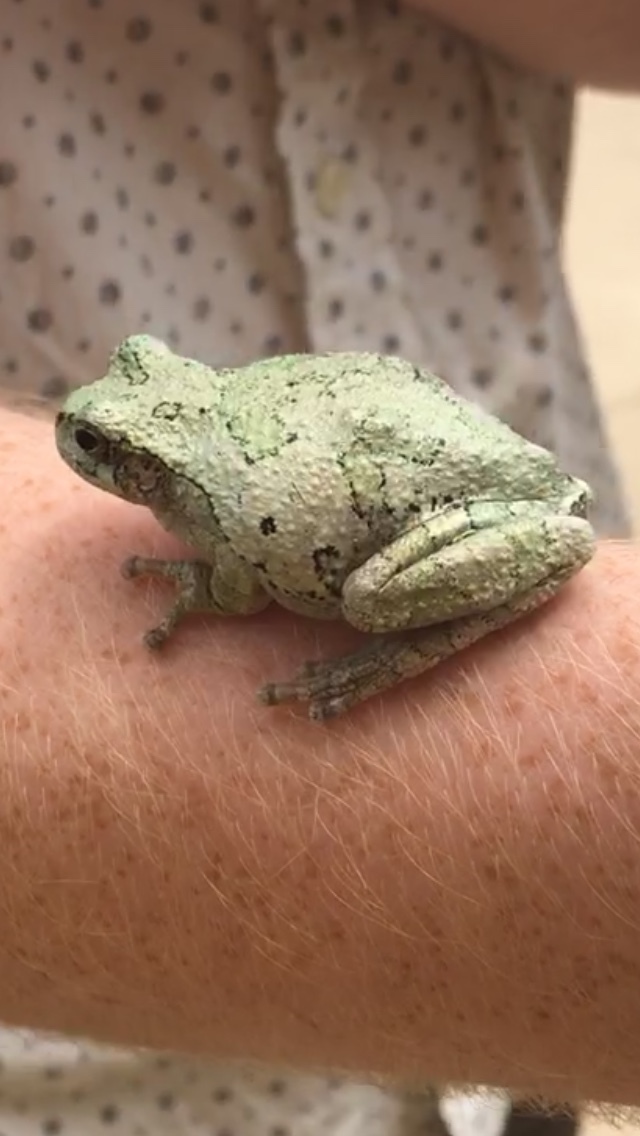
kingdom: Animalia
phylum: Chordata
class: Amphibia
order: Anura
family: Hylidae
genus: Dryophytes
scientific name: Dryophytes chrysoscelis
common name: Cope's gray treefrog
